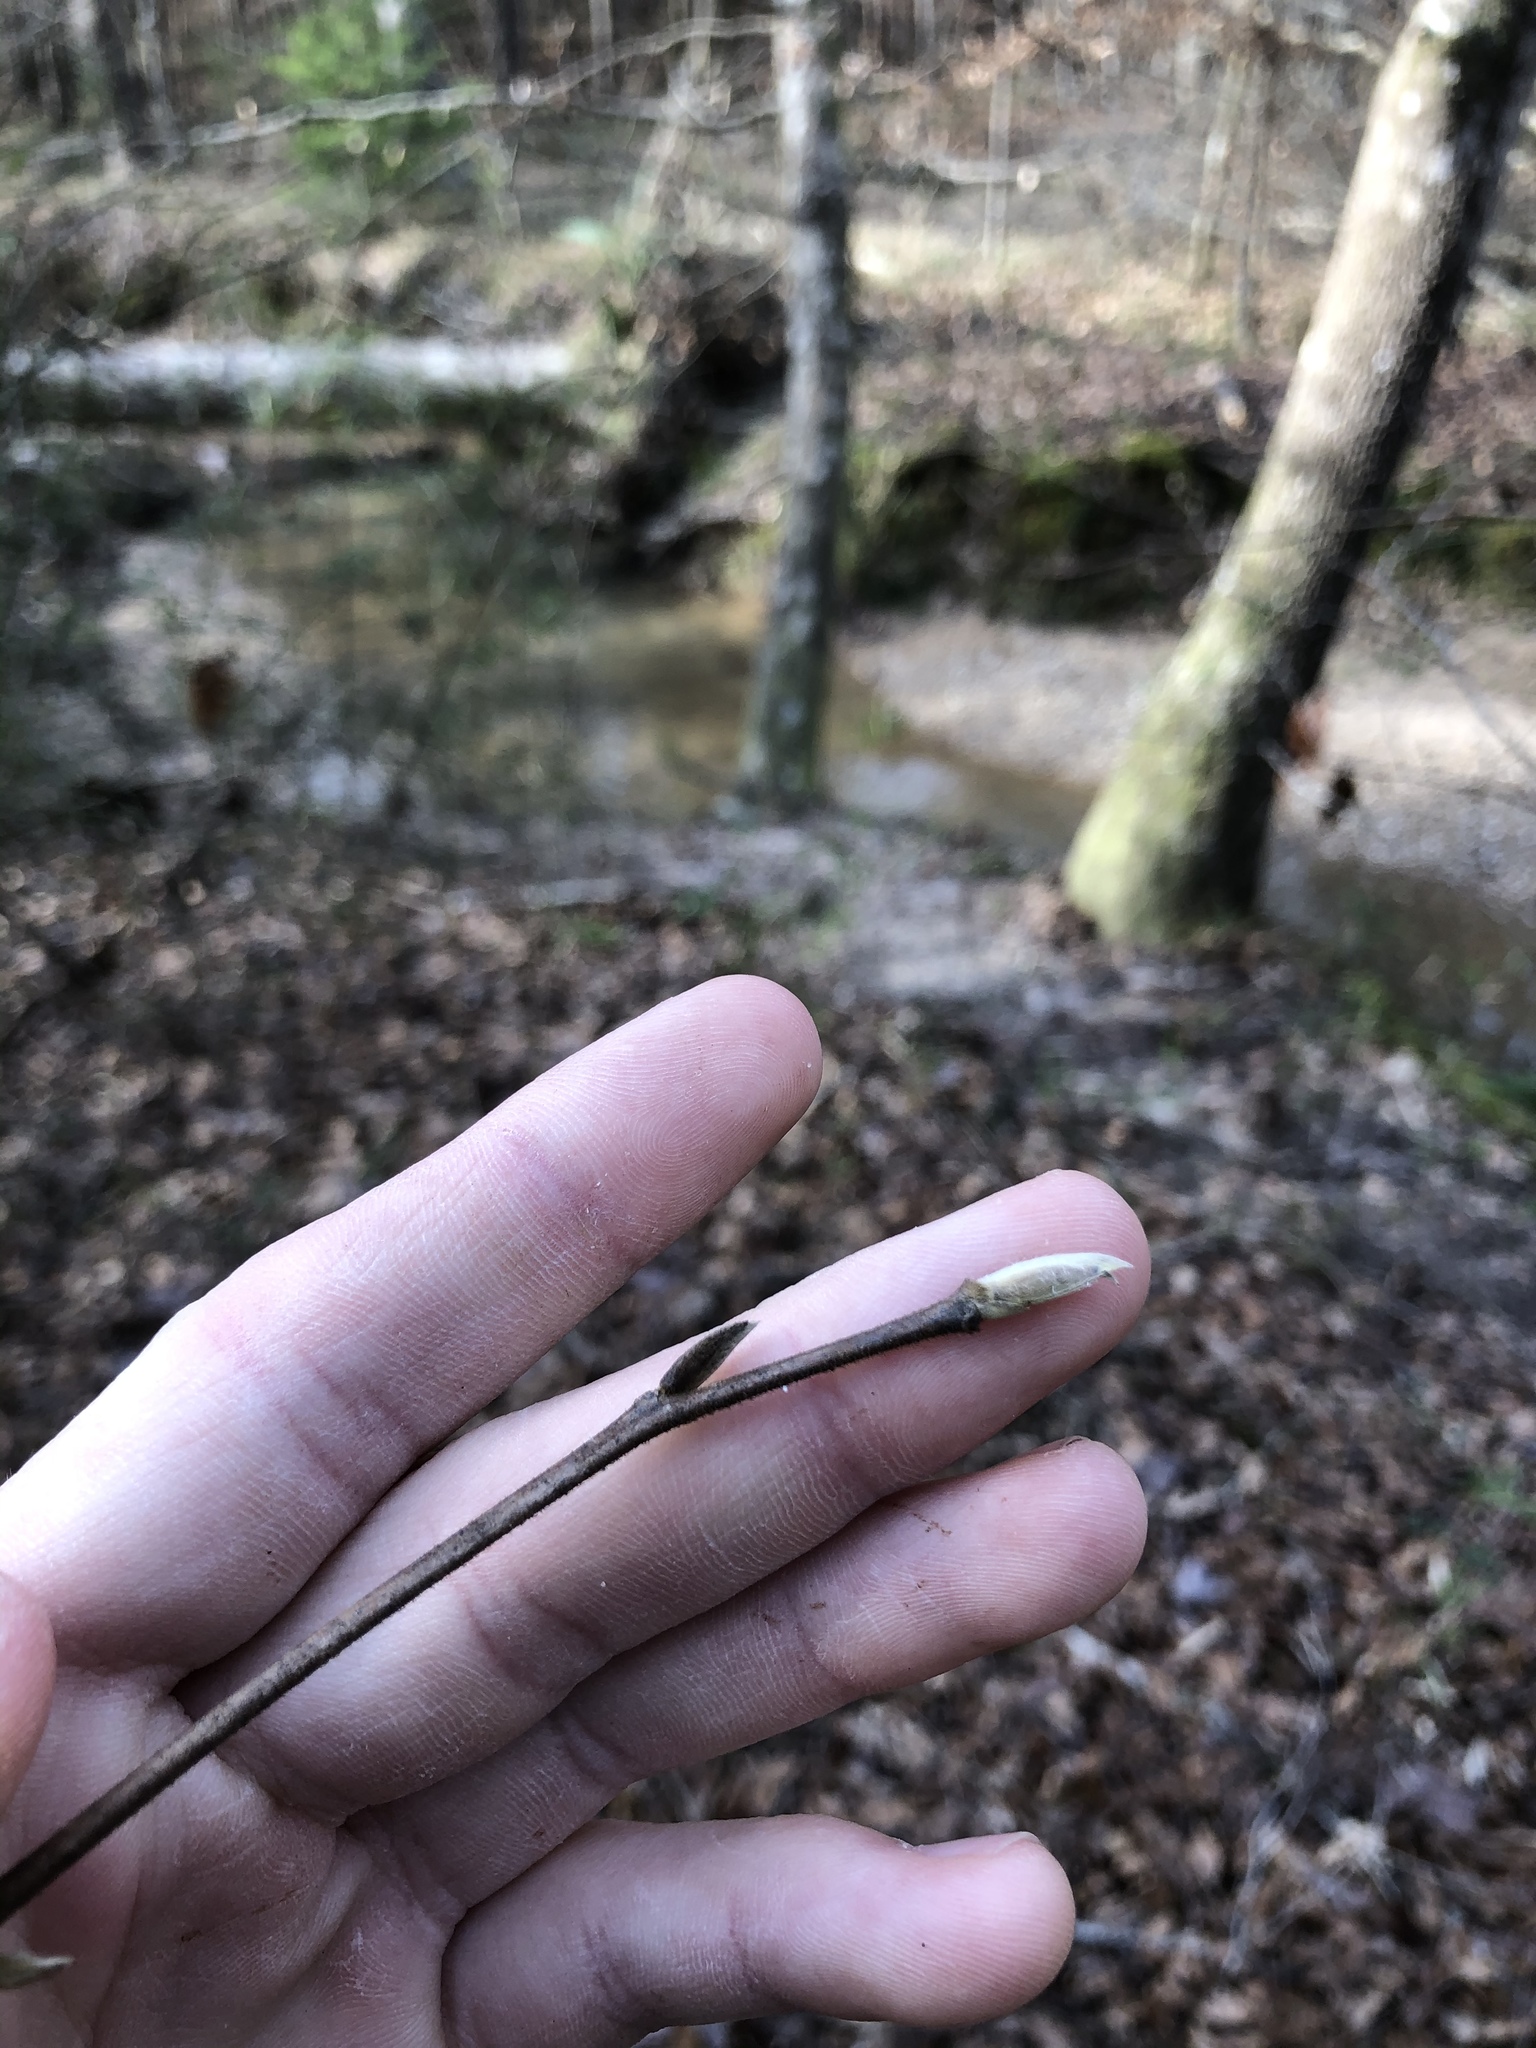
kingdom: Plantae
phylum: Tracheophyta
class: Magnoliopsida
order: Ericales
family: Theaceae
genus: Stewartia
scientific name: Stewartia malacodendron
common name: Virginia stewartia
